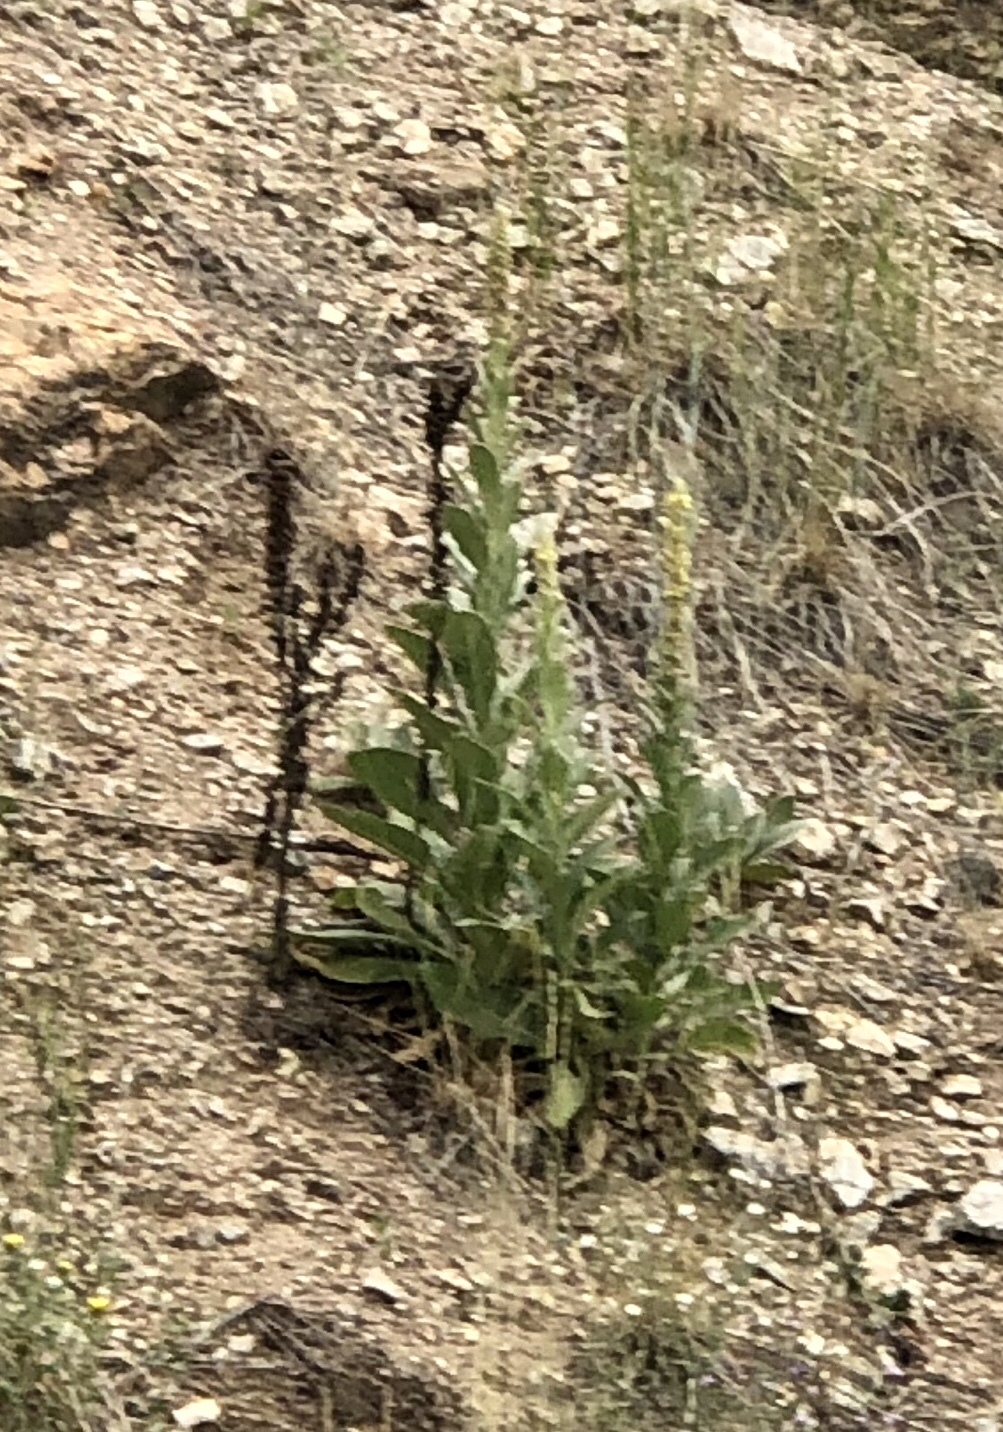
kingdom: Plantae
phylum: Tracheophyta
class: Magnoliopsida
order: Lamiales
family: Scrophulariaceae
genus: Verbascum
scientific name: Verbascum thapsus
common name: Common mullein
